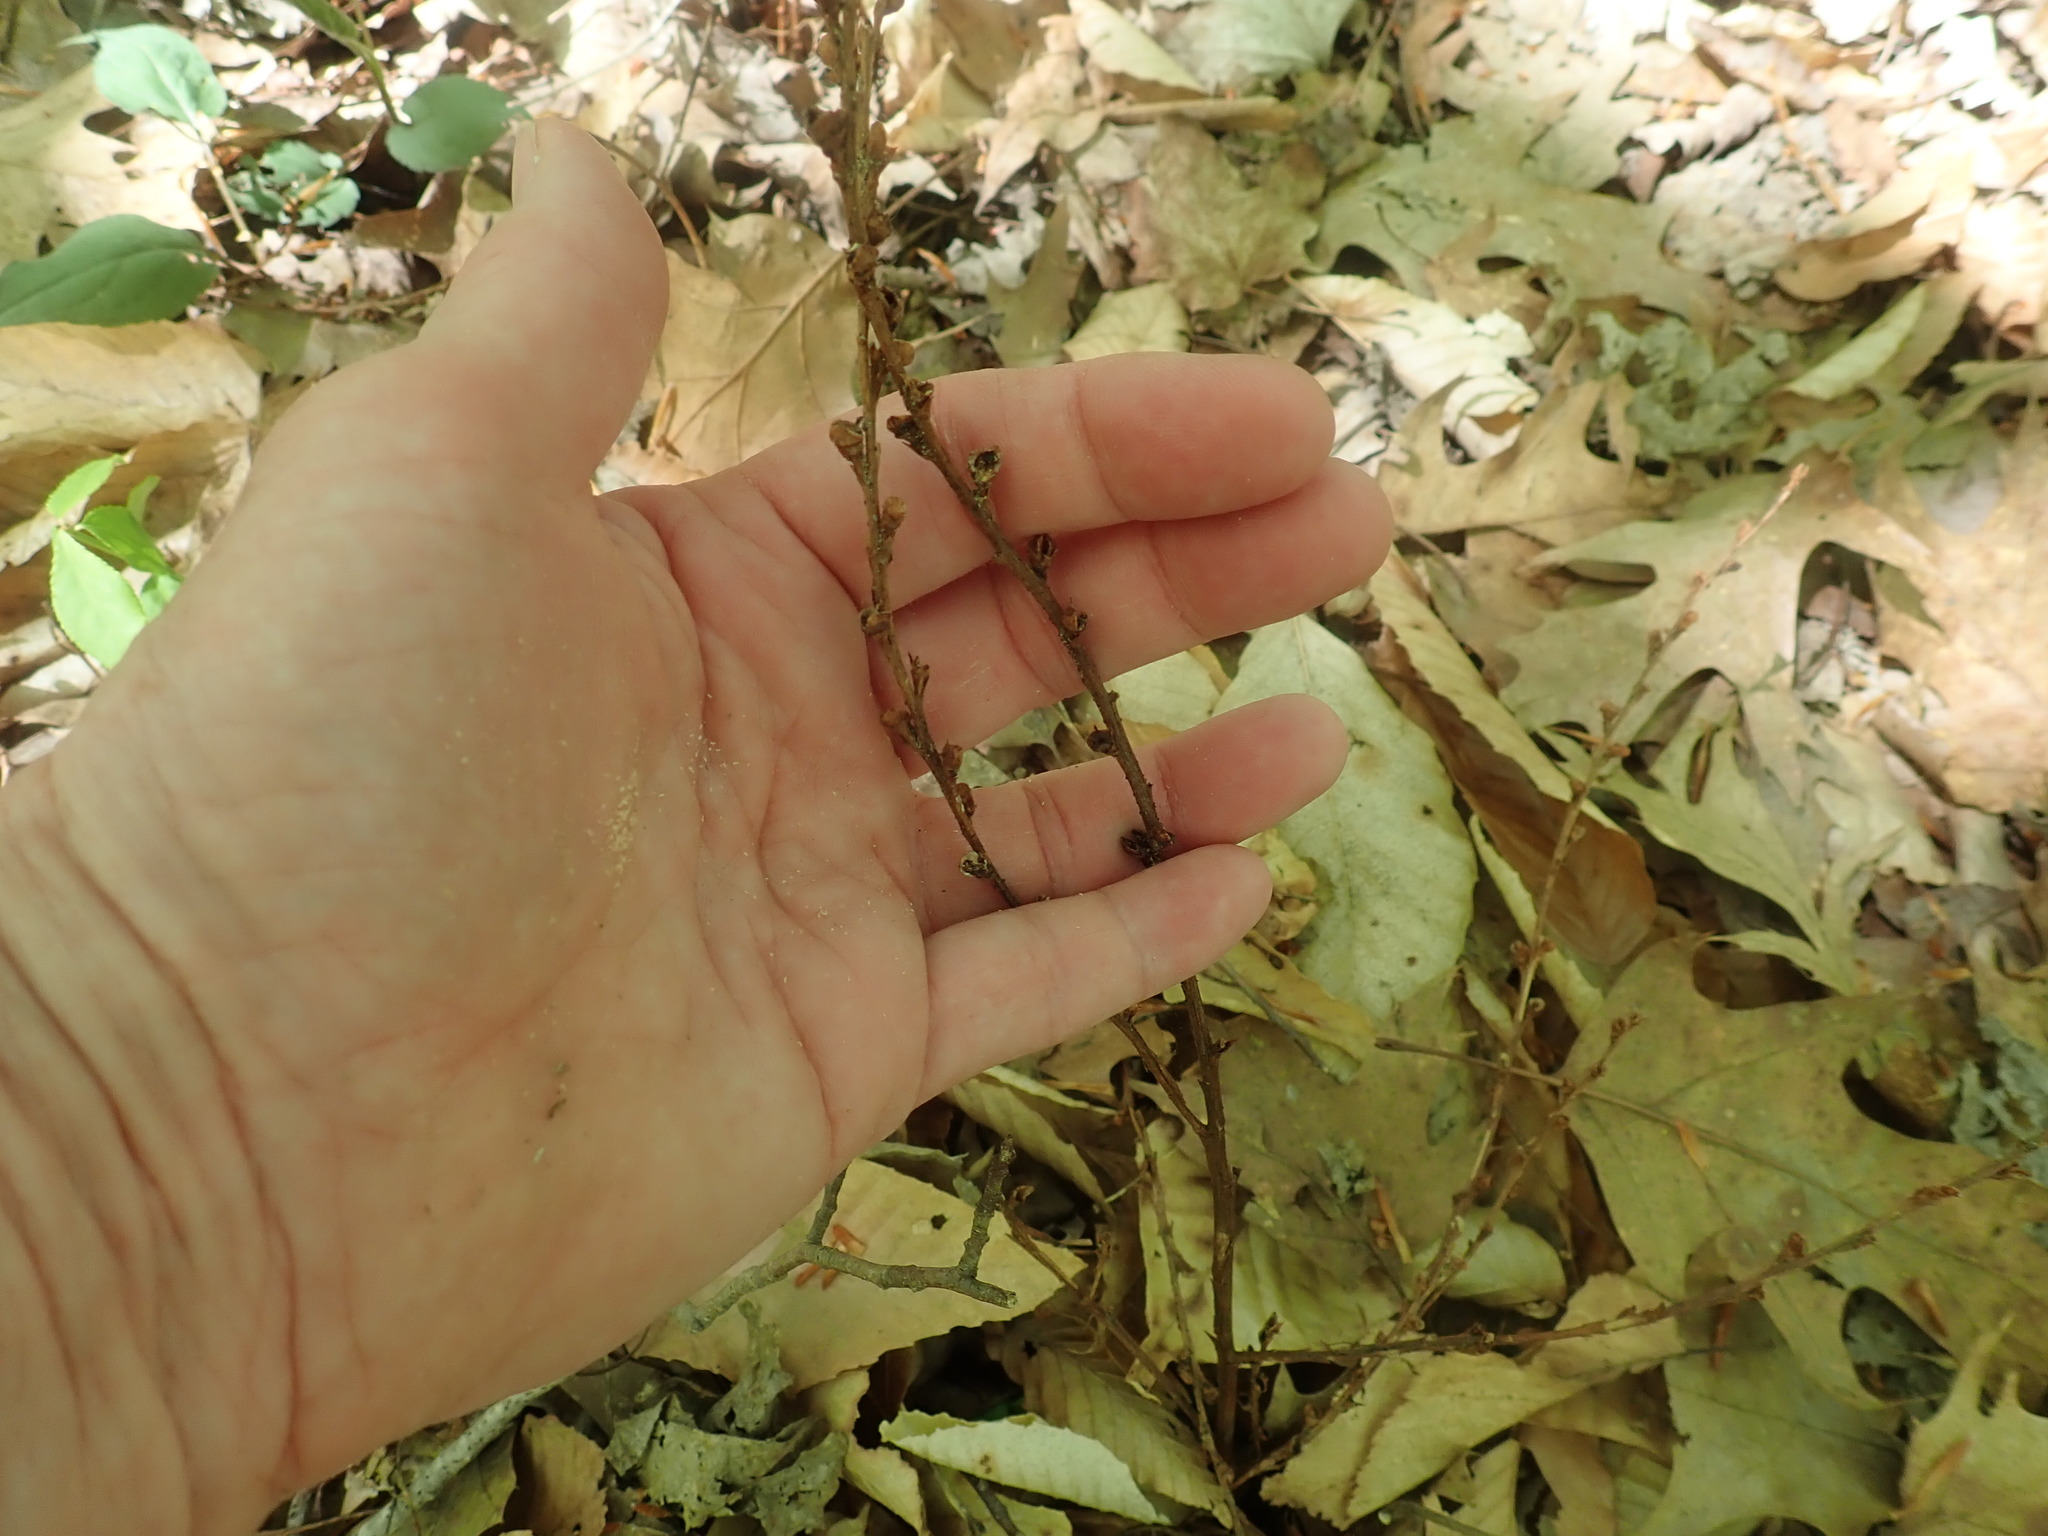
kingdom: Plantae
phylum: Tracheophyta
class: Magnoliopsida
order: Lamiales
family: Orobanchaceae
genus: Epifagus
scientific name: Epifagus virginiana
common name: Beechdrops
